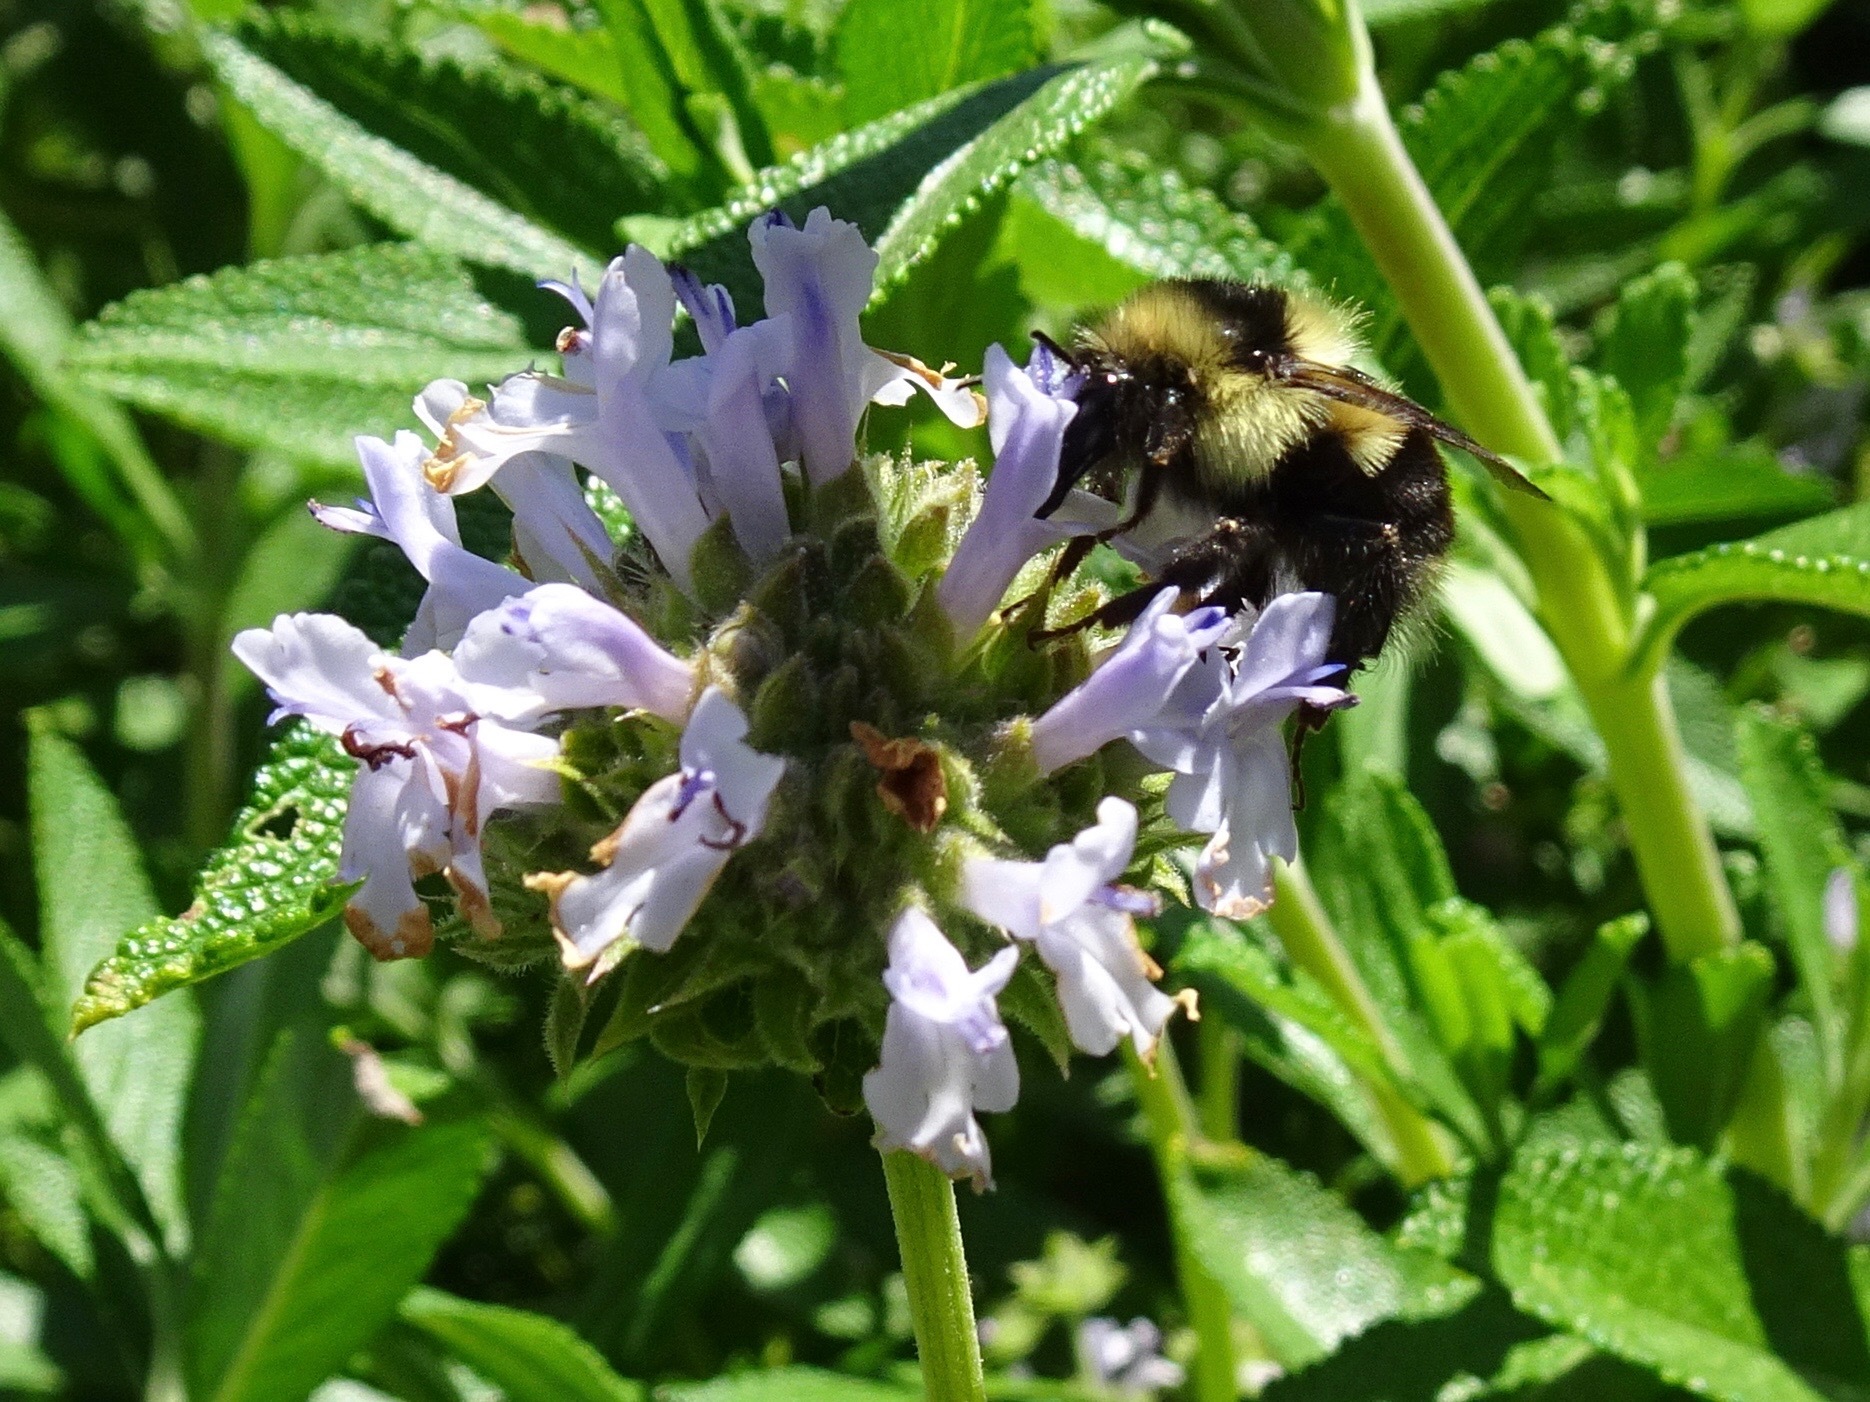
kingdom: Animalia
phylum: Arthropoda
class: Insecta
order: Hymenoptera
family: Apidae
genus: Bombus
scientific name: Bombus melanopygus
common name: Black tail bumble bee
